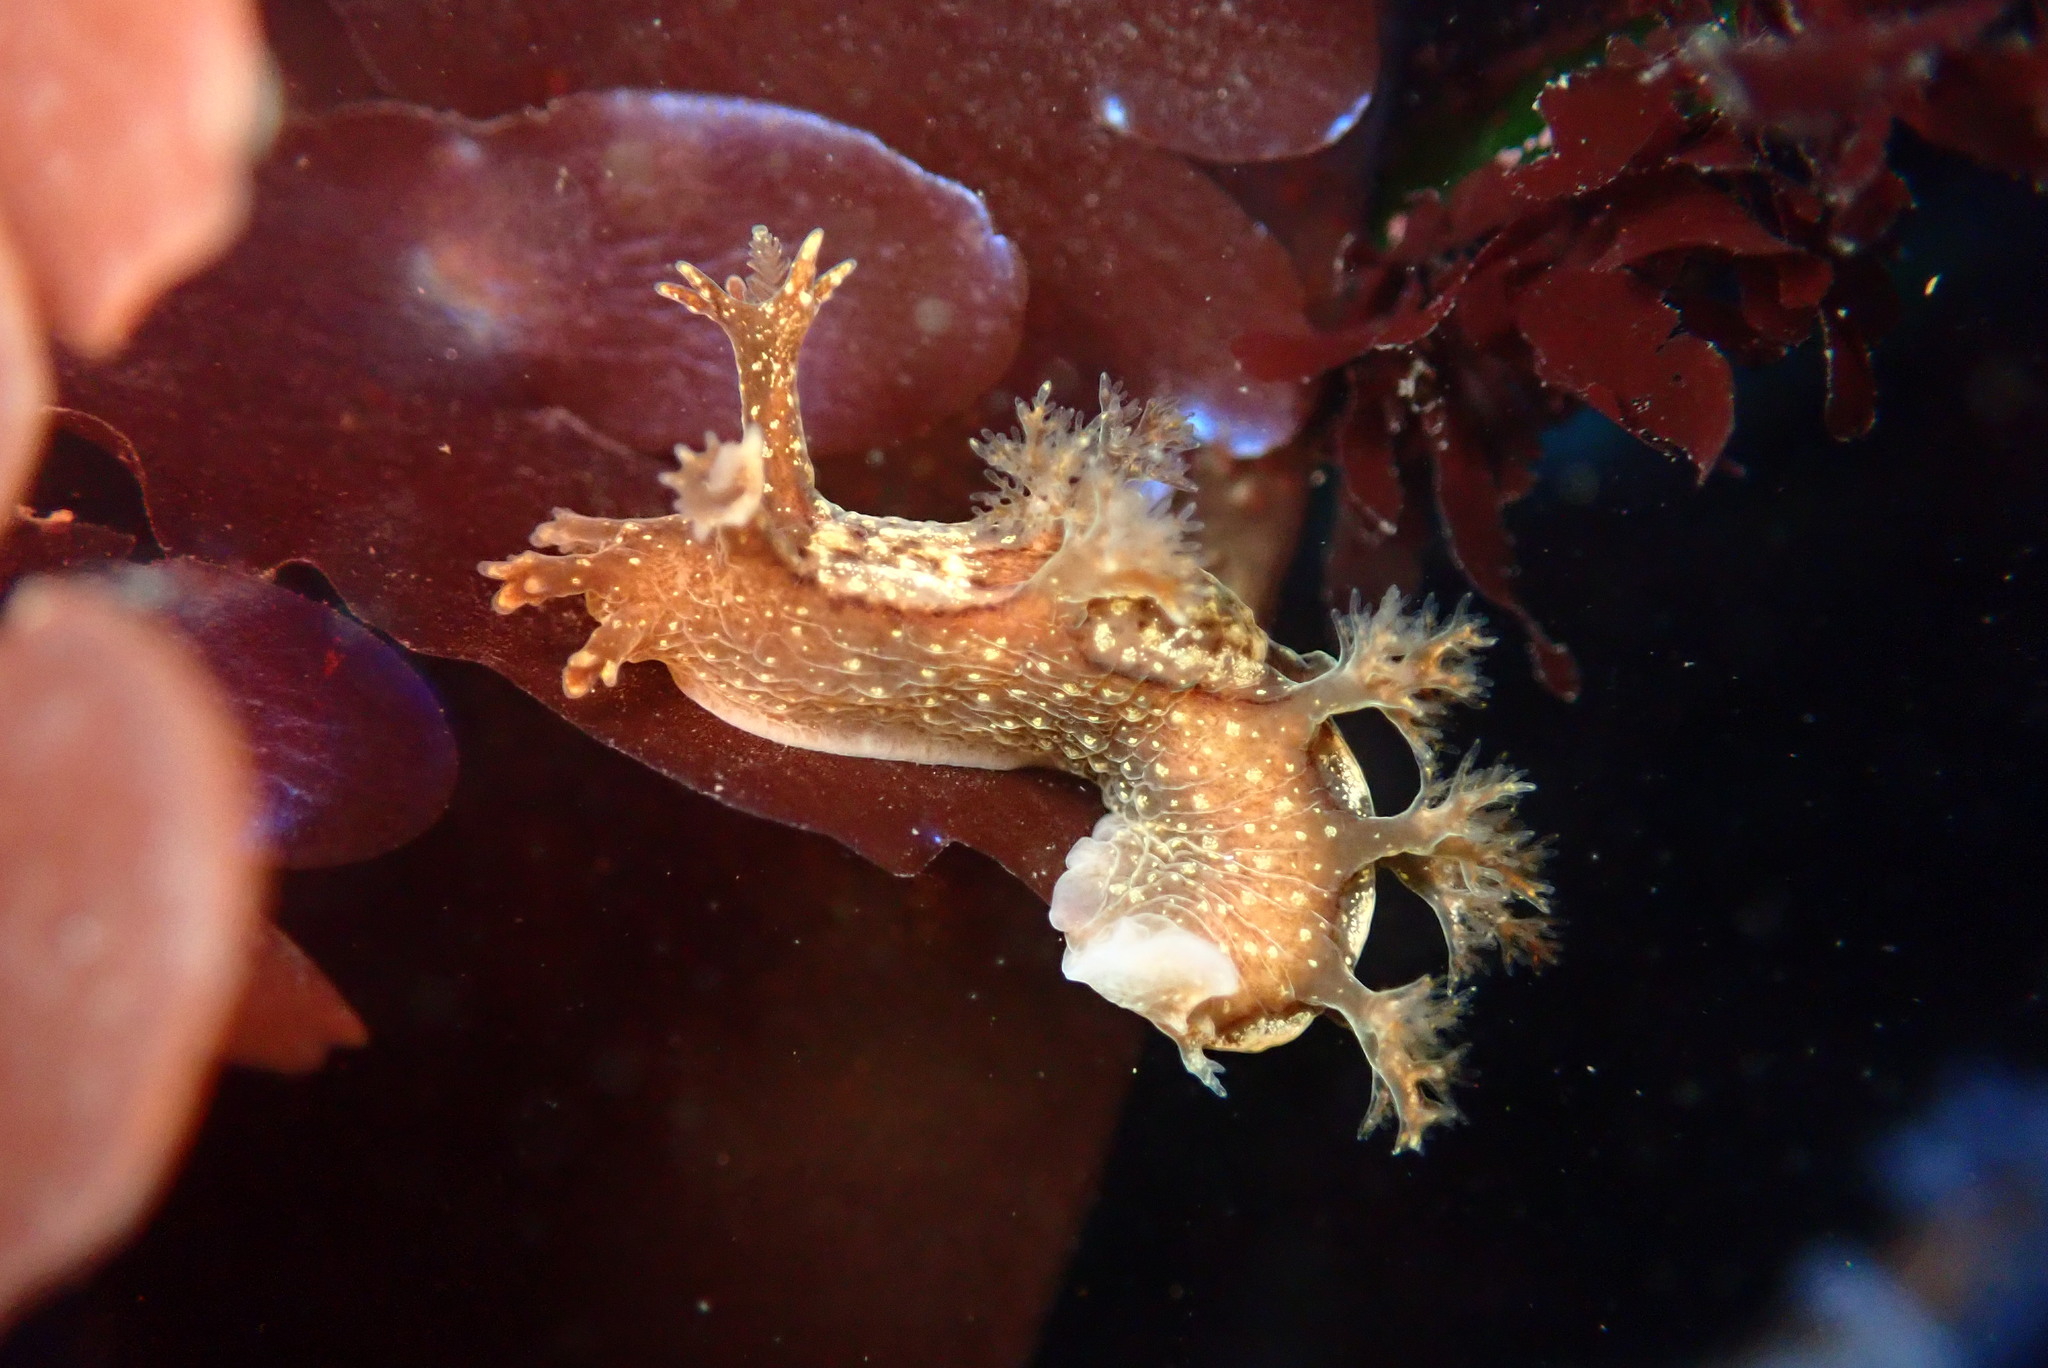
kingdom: Animalia
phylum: Mollusca
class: Gastropoda
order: Nudibranchia
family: Dendronotidae
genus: Dendronotus
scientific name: Dendronotus subramosus
